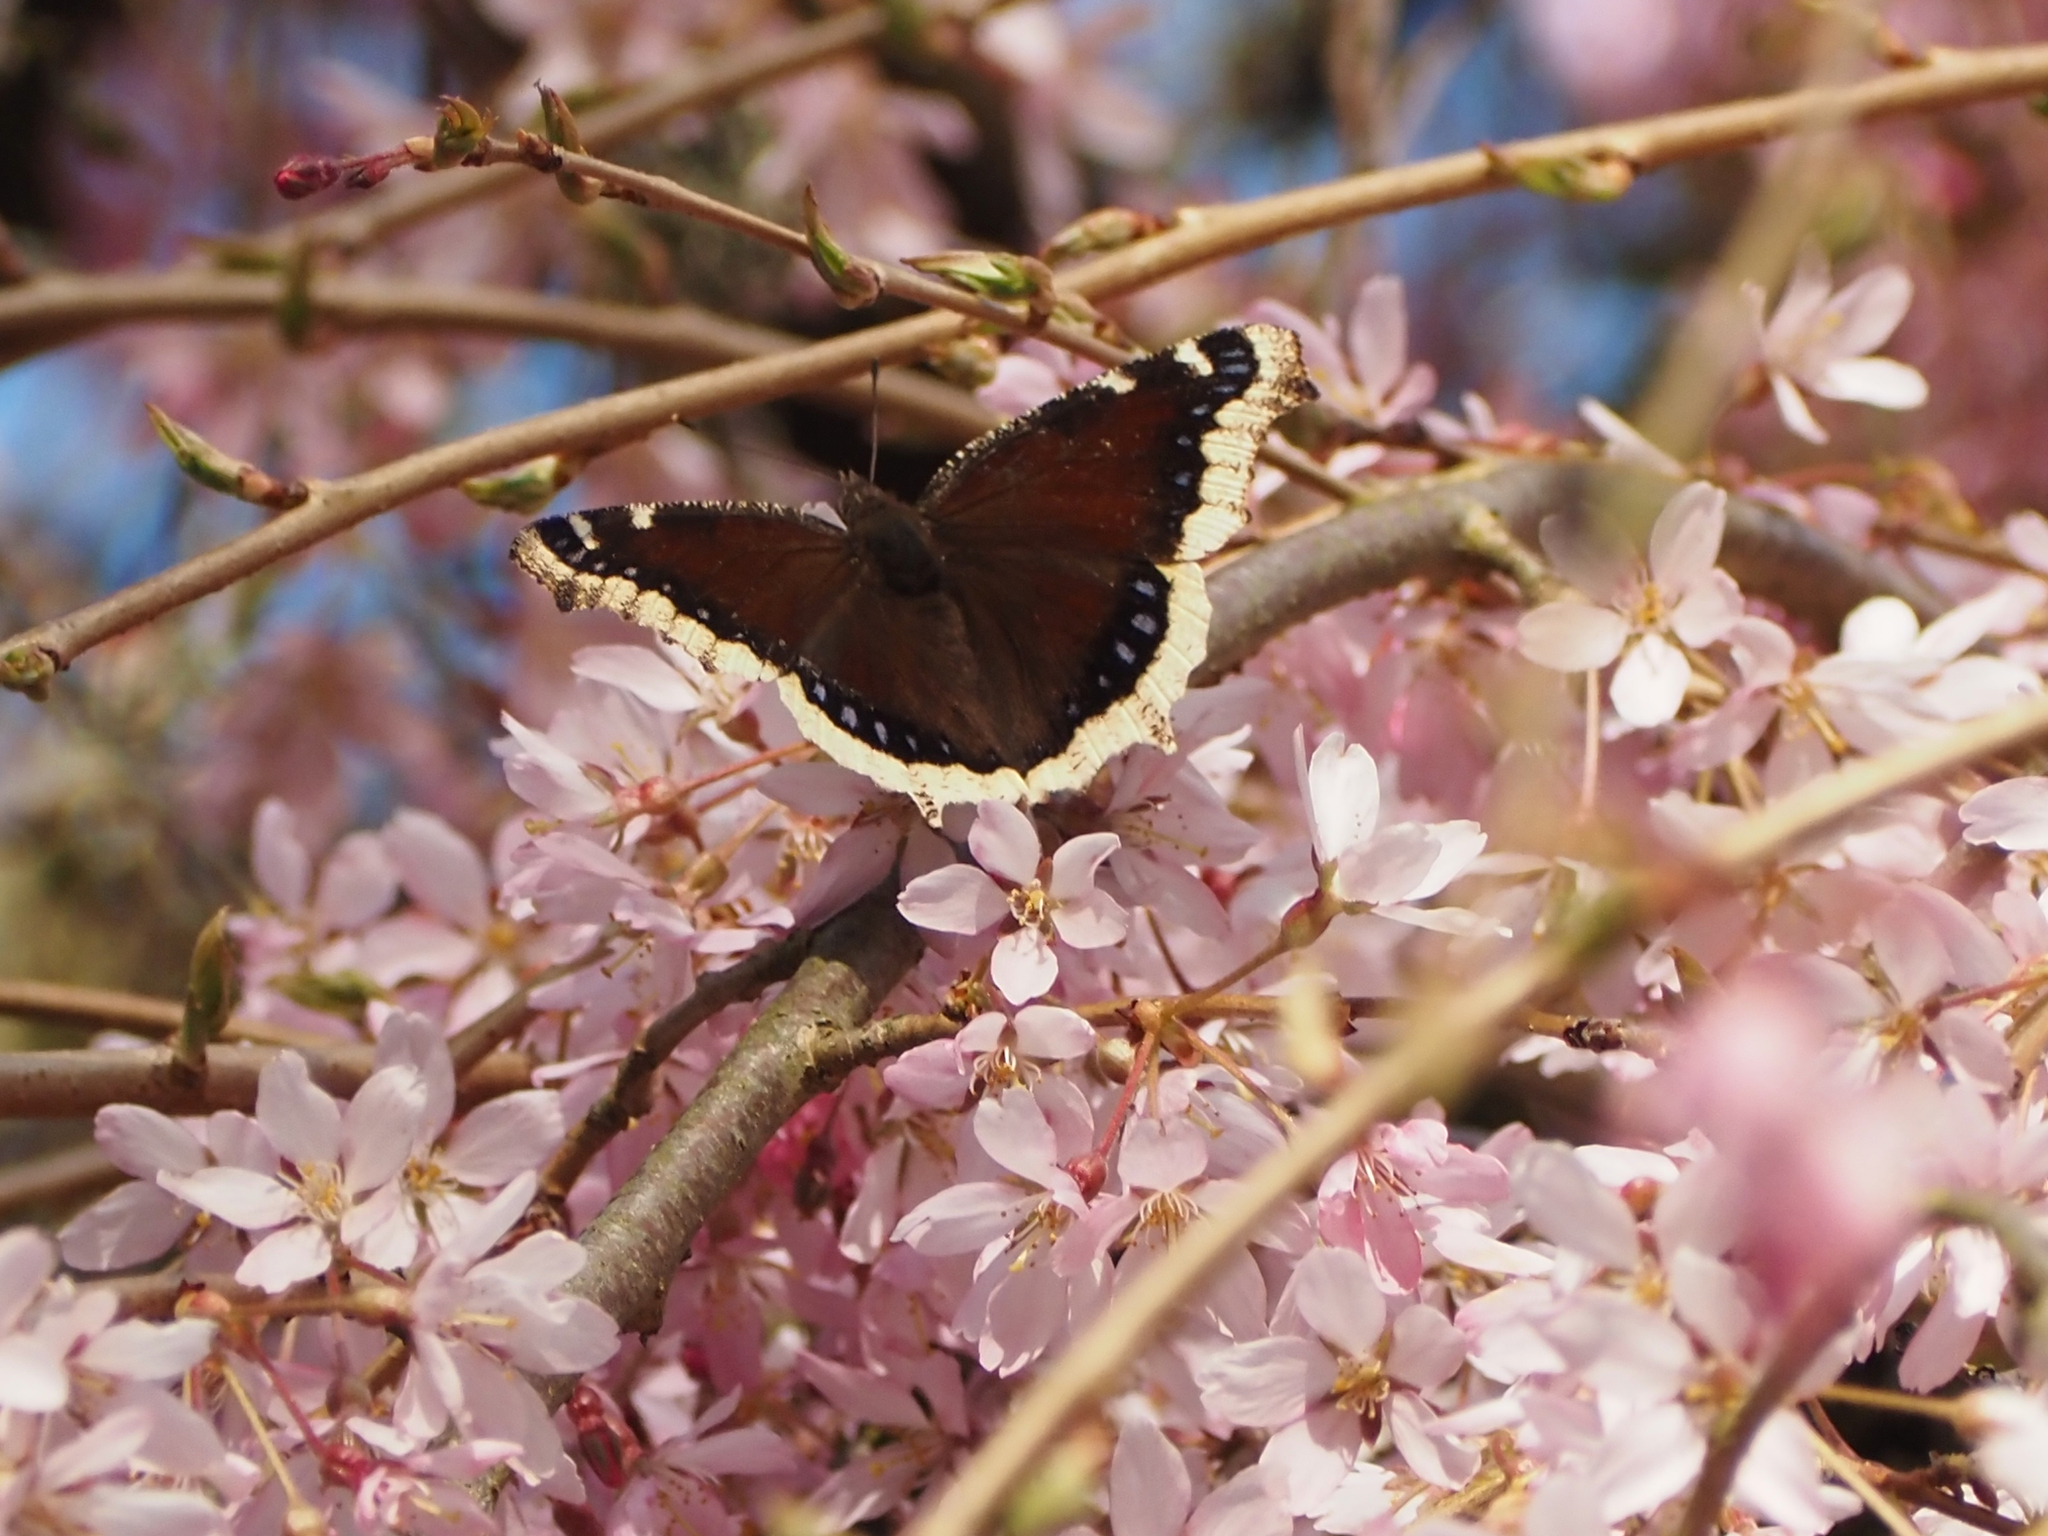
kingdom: Animalia
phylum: Arthropoda
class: Insecta
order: Lepidoptera
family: Nymphalidae
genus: Nymphalis
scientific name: Nymphalis antiopa
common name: Camberwell beauty
